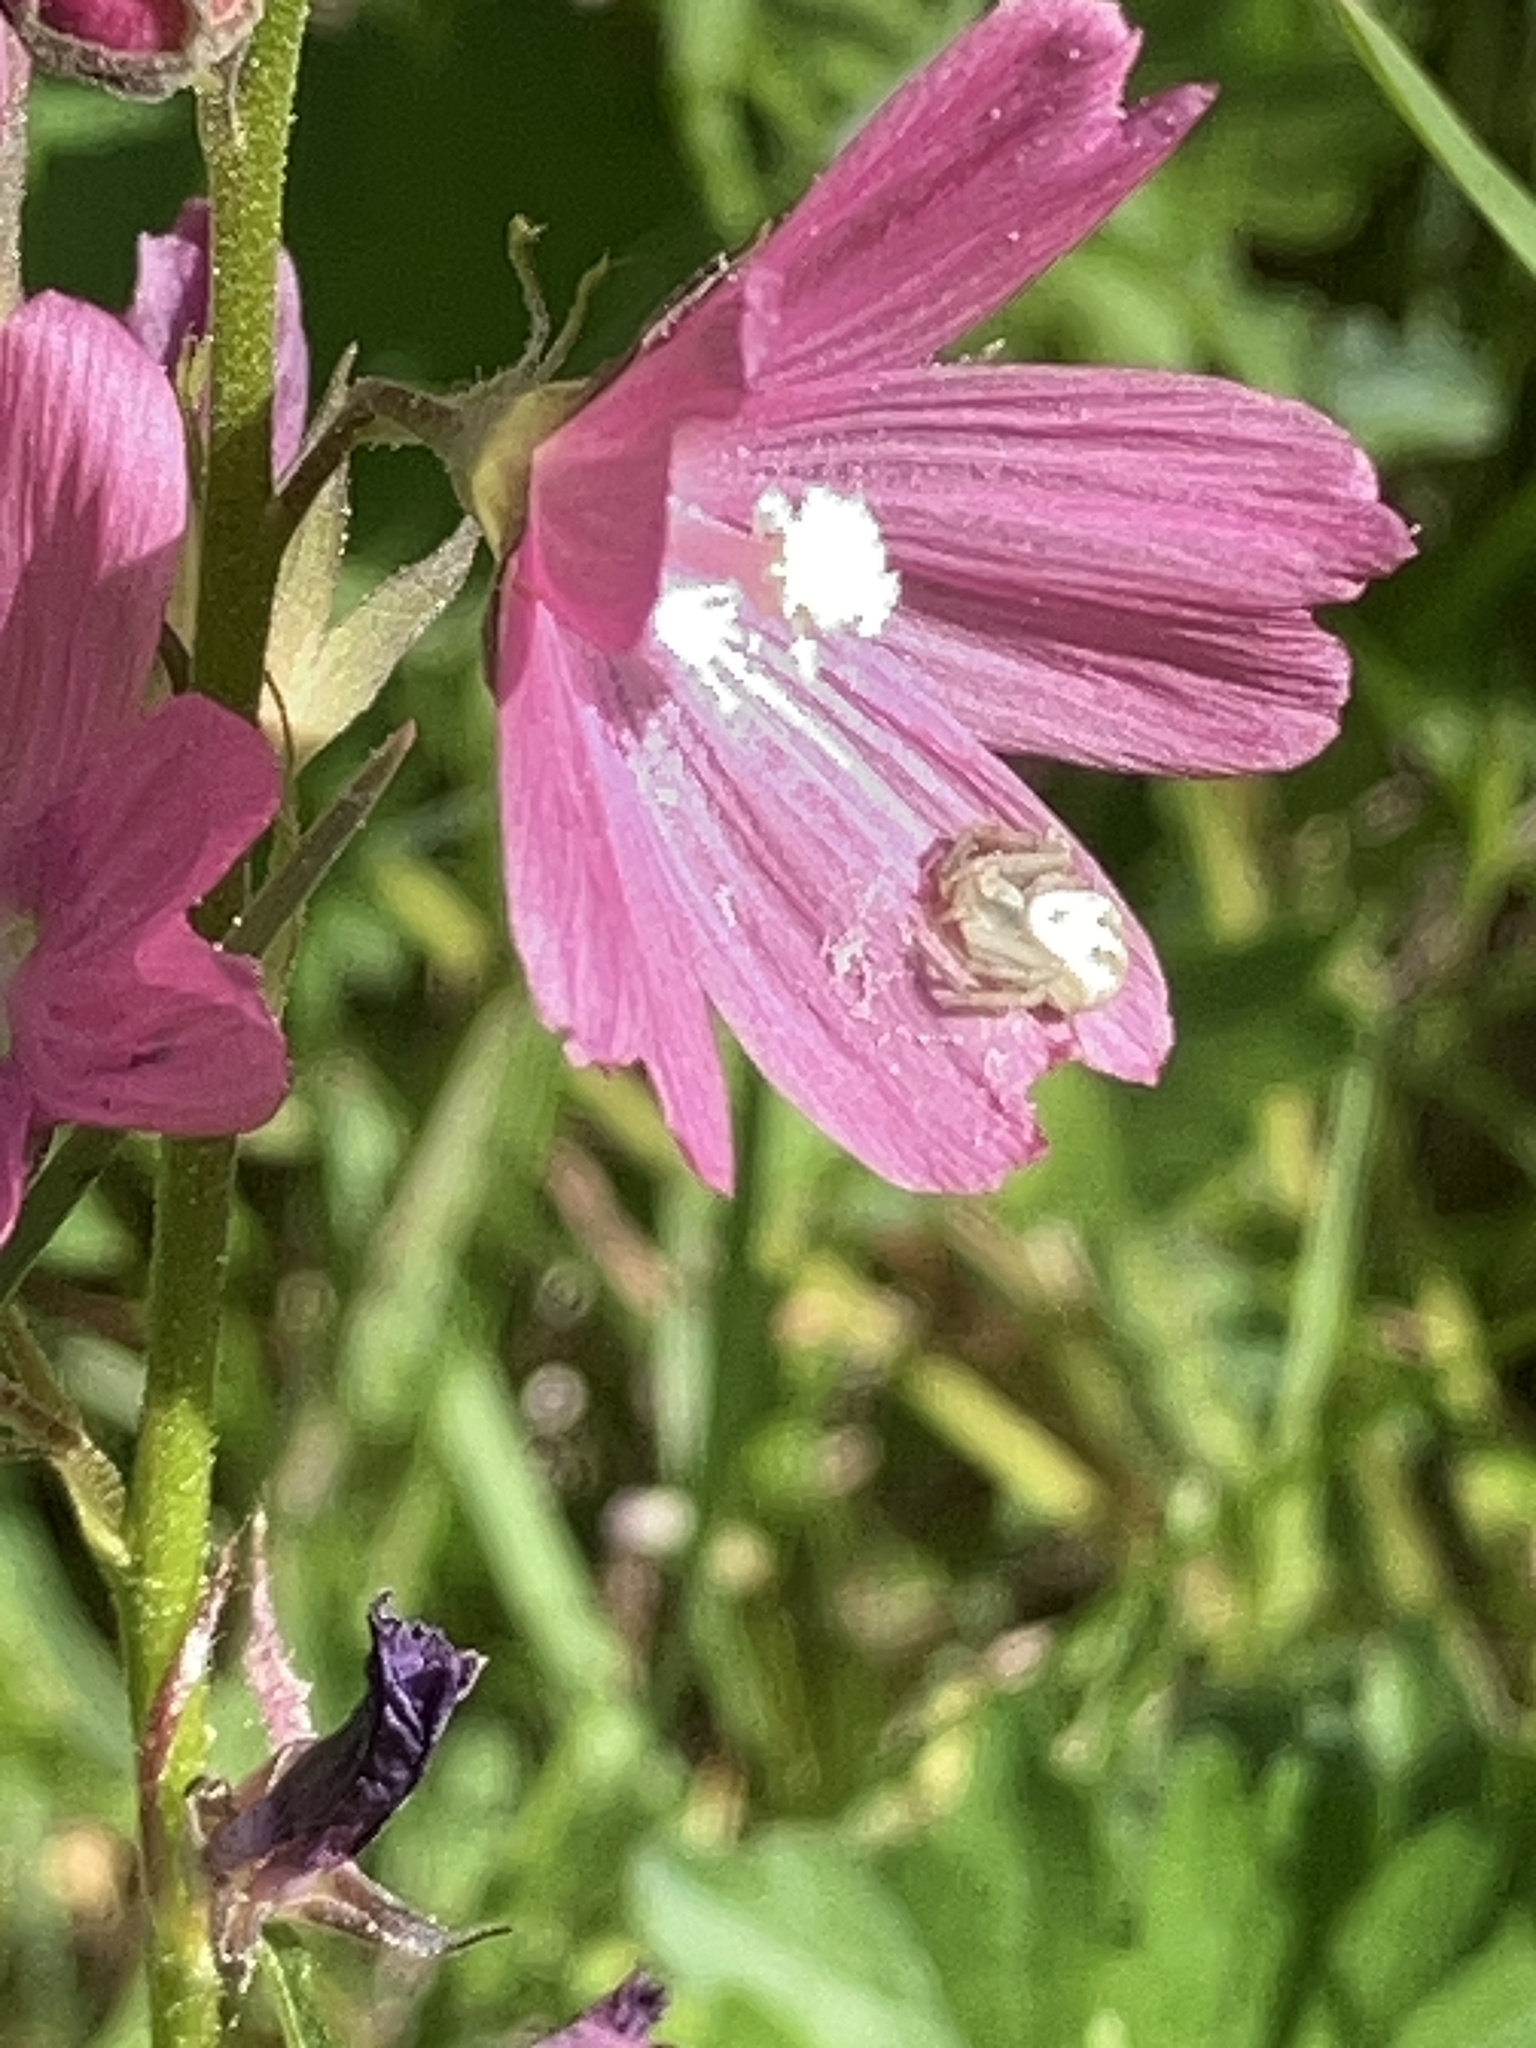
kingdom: Plantae
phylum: Tracheophyta
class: Magnoliopsida
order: Malvales
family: Malvaceae
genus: Sidalcea
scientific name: Sidalcea asprella
